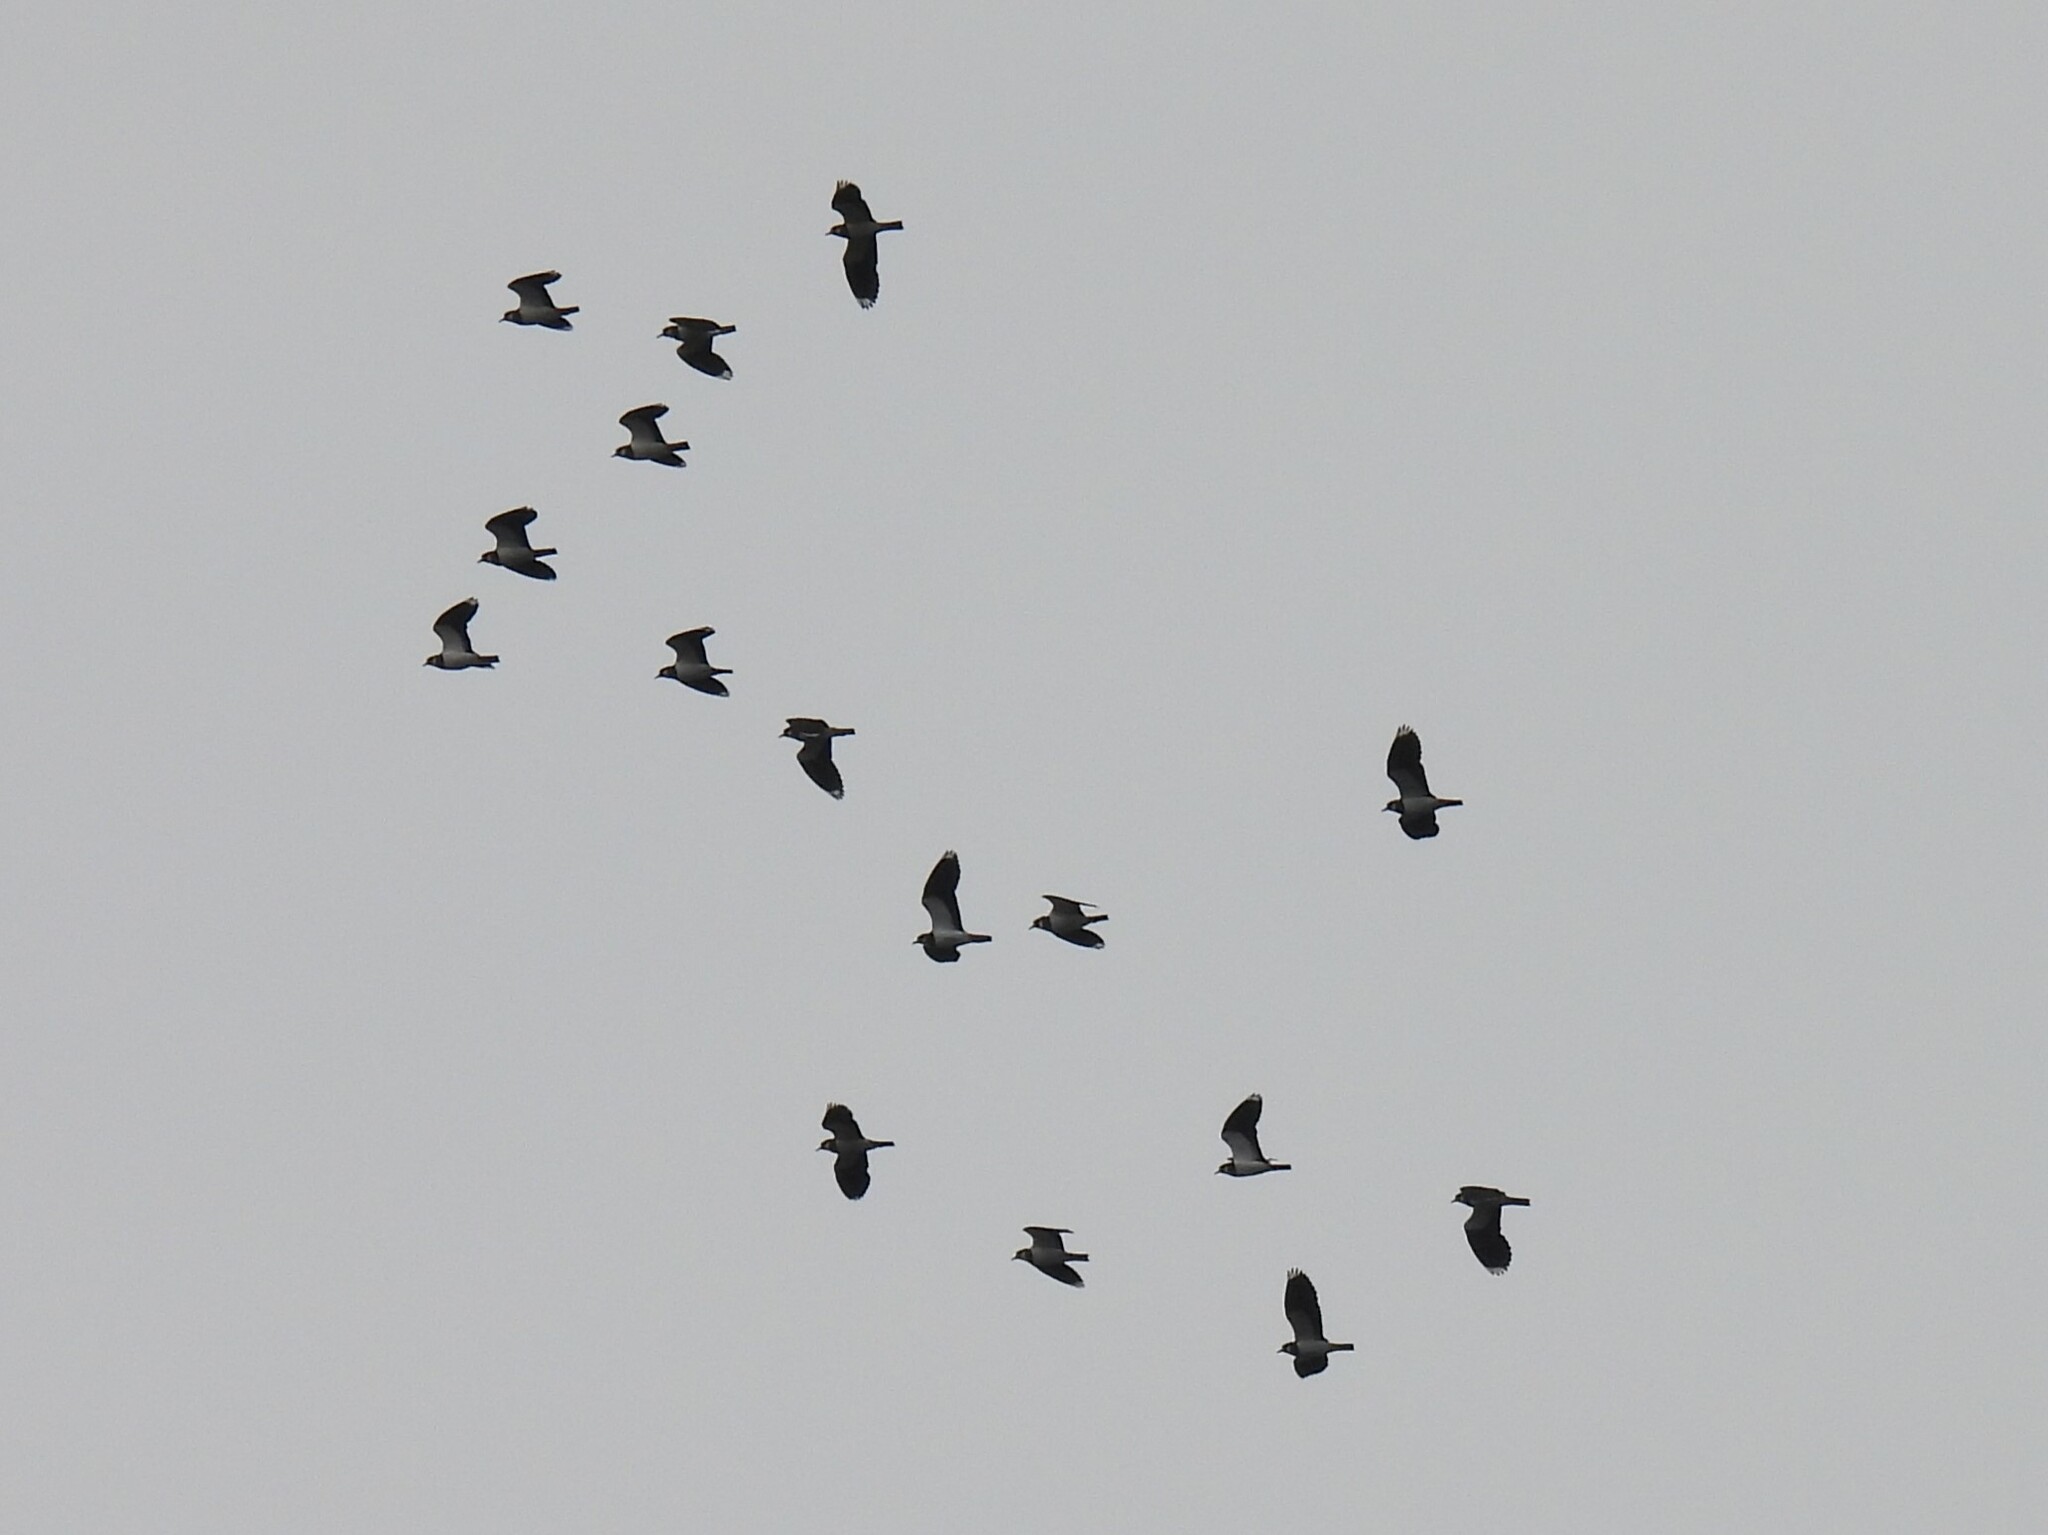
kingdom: Animalia
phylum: Chordata
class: Aves
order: Charadriiformes
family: Charadriidae
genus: Vanellus
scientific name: Vanellus vanellus
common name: Northern lapwing
